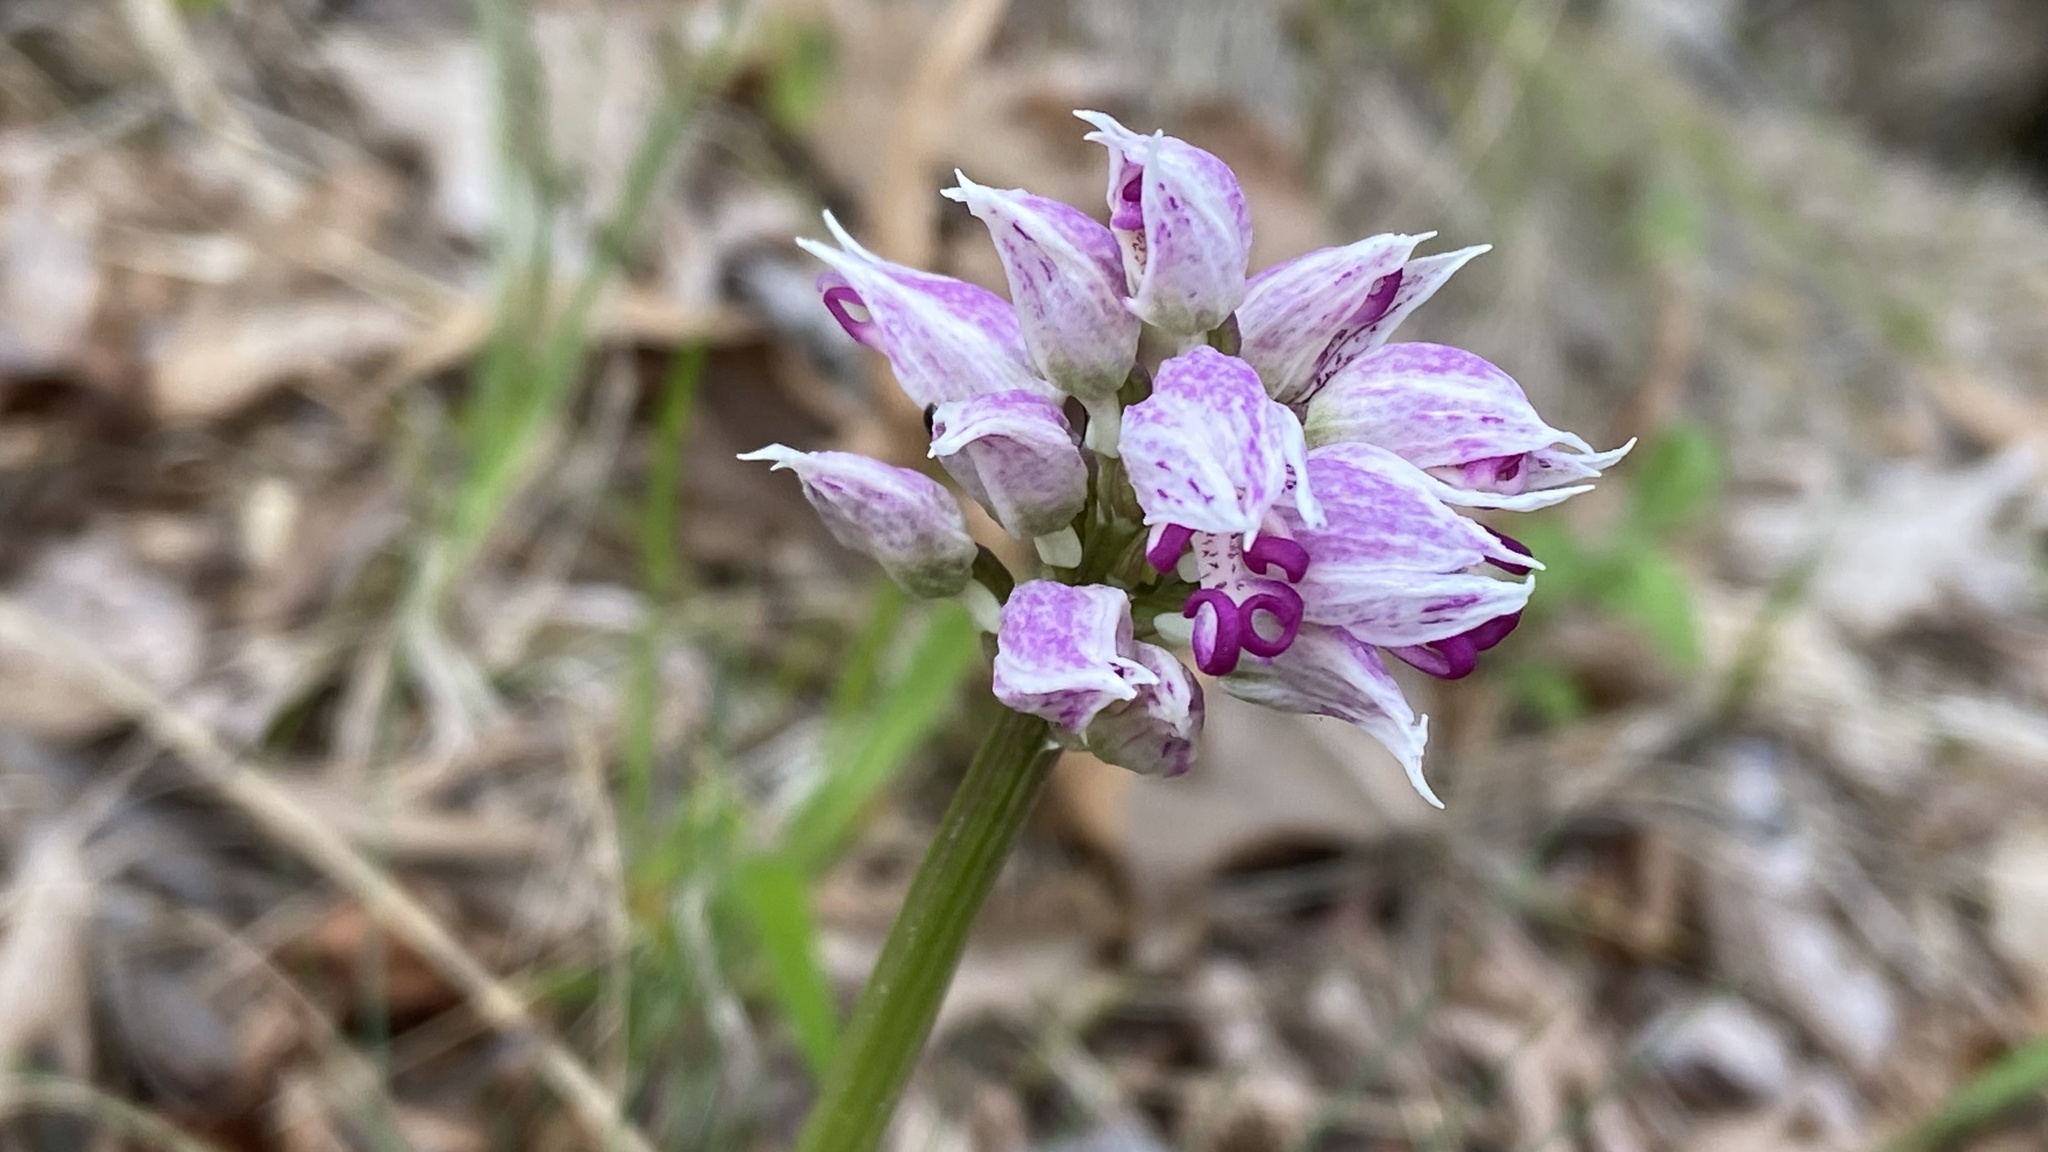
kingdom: Plantae
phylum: Tracheophyta
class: Liliopsida
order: Asparagales
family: Orchidaceae
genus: Orchis
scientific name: Orchis simia
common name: Monkey orchid
